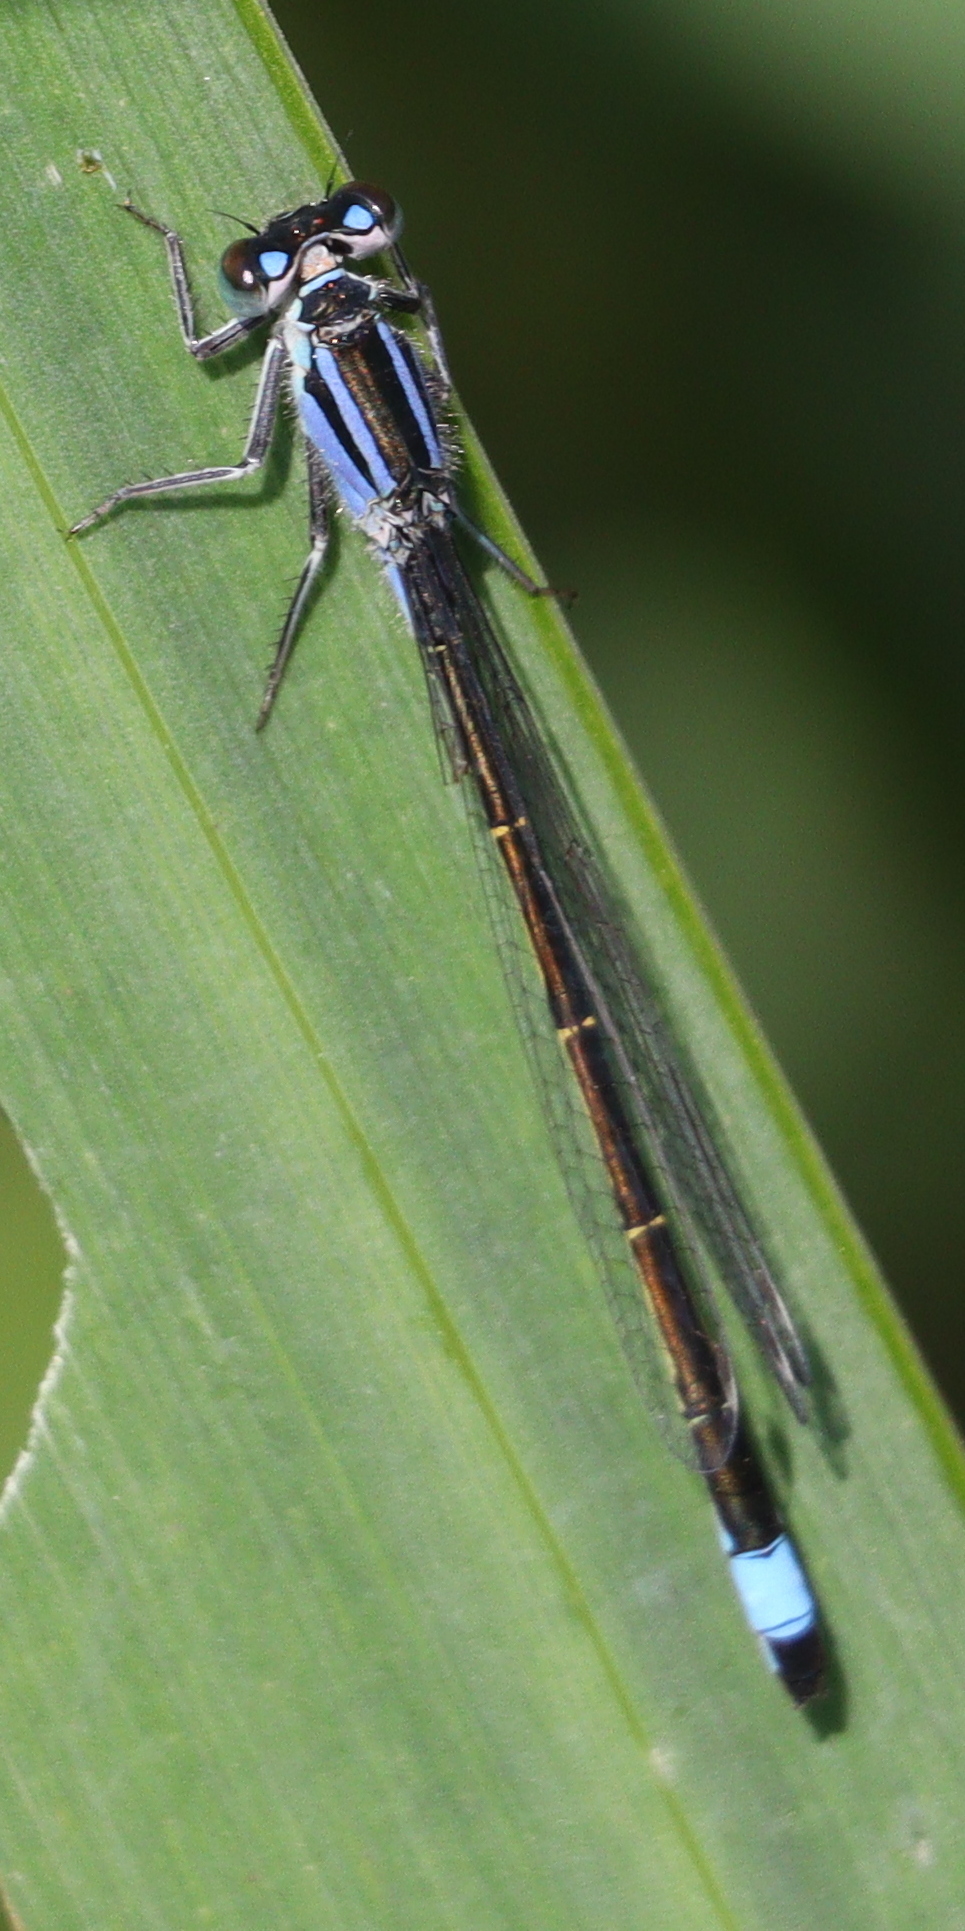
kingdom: Animalia
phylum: Arthropoda
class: Insecta
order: Odonata
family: Coenagrionidae
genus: Ischnura
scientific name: Ischnura elegans
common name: Blue-tailed damselfly
